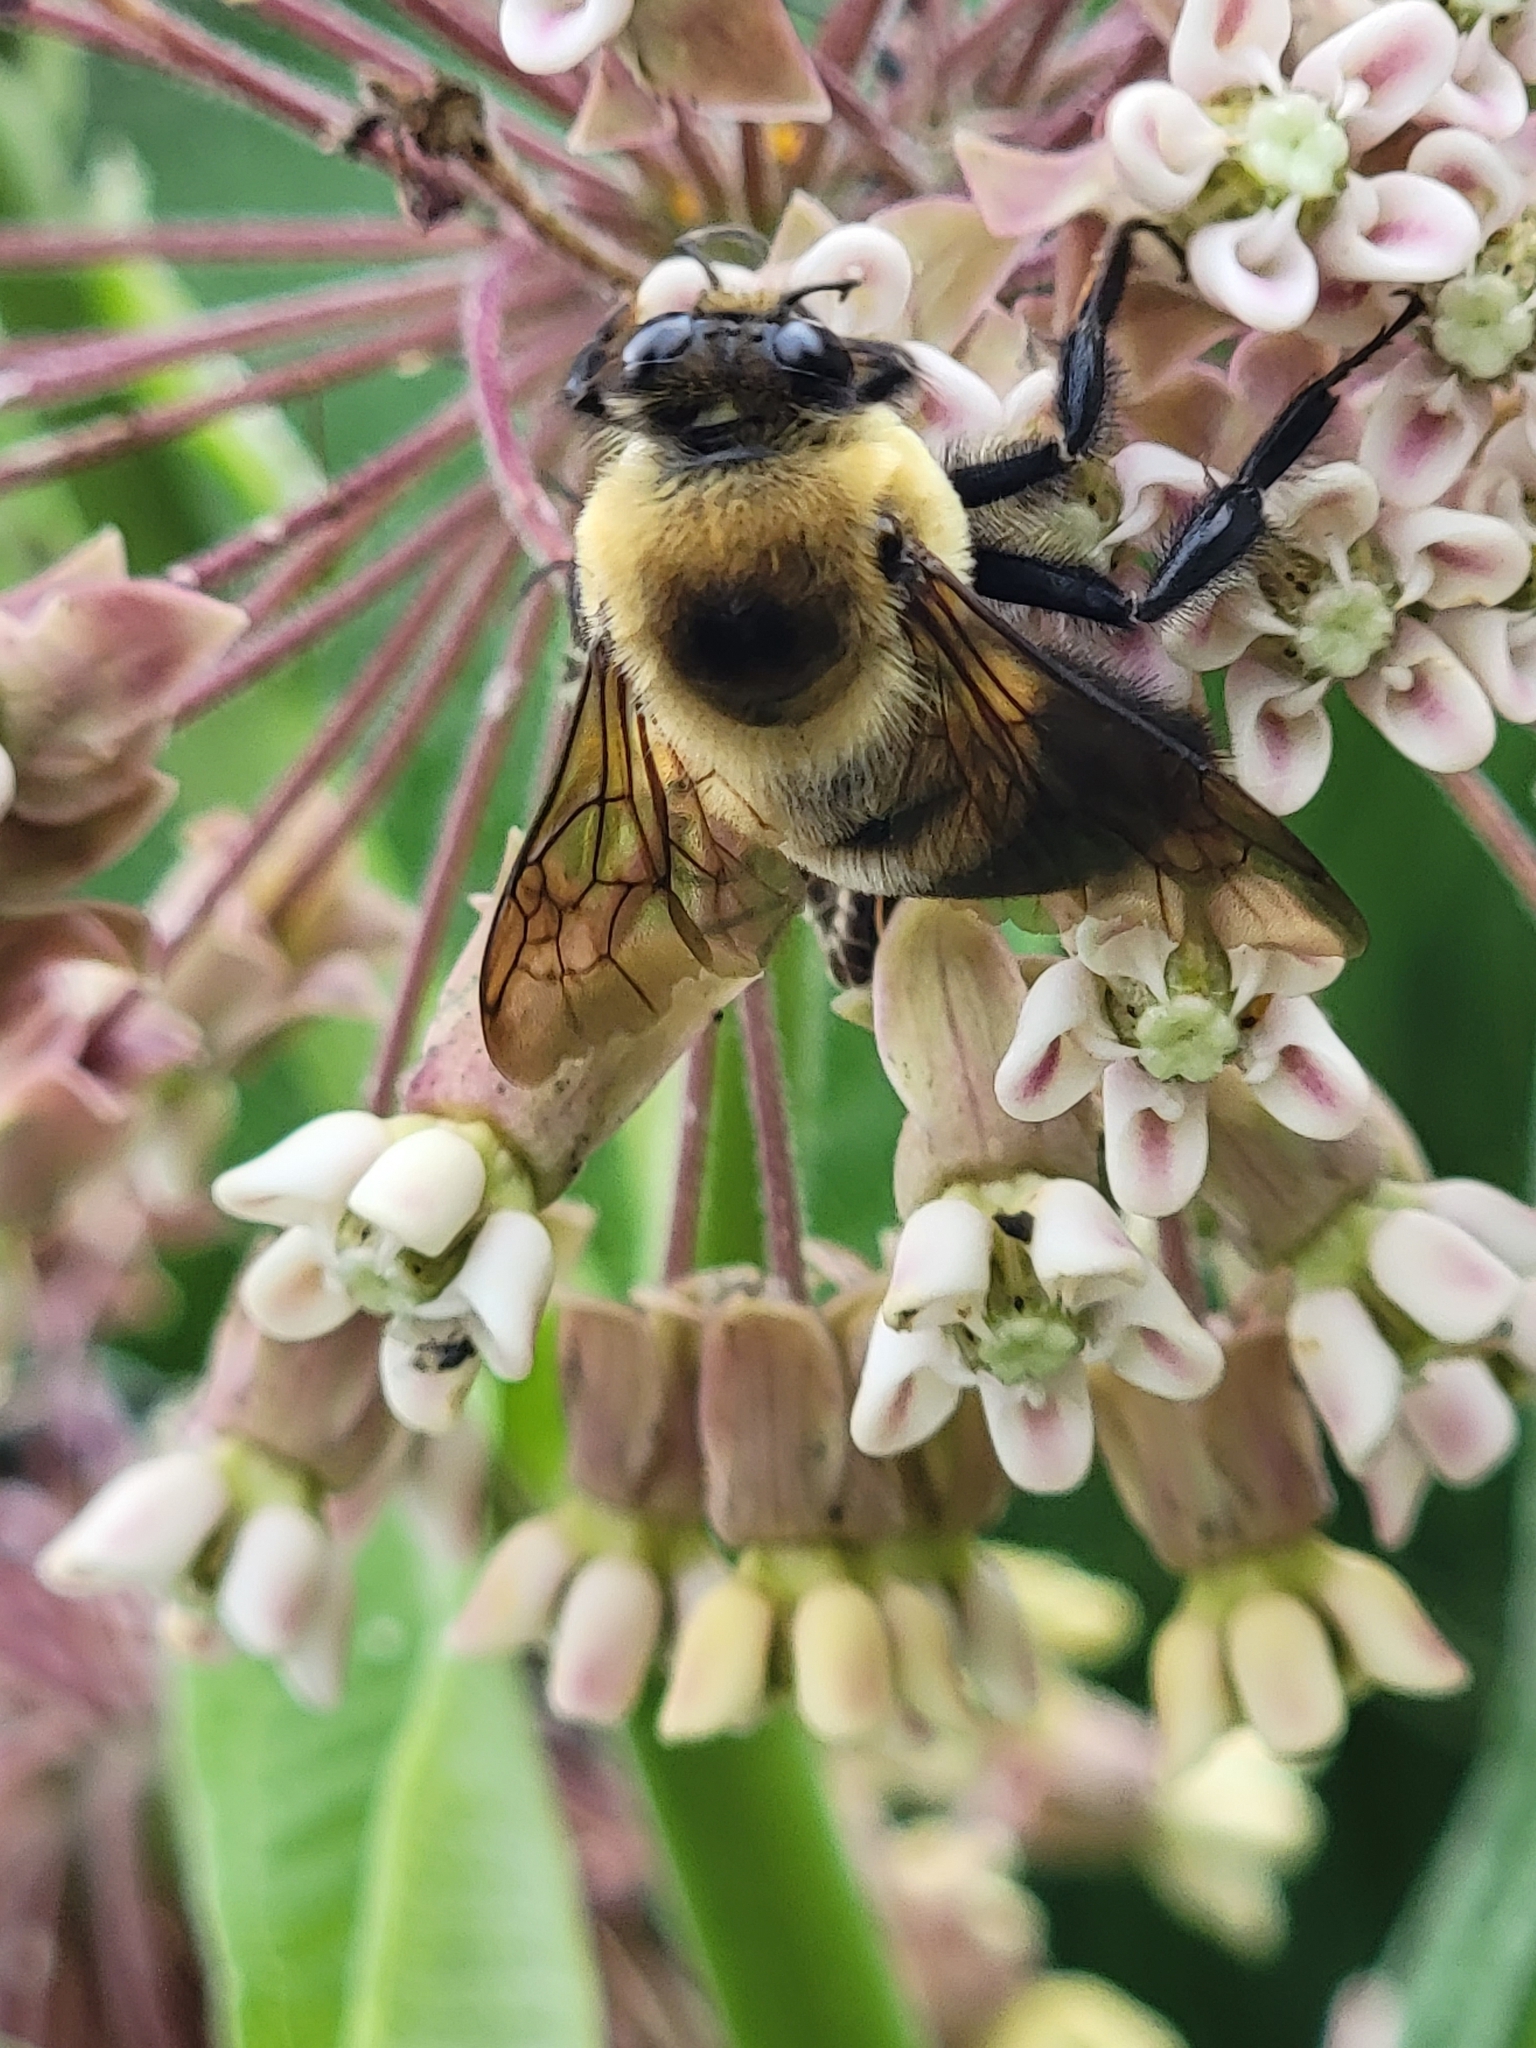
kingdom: Animalia
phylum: Arthropoda
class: Insecta
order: Hymenoptera
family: Apidae
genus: Bombus
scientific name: Bombus griseocollis
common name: Brown-belted bumble bee
